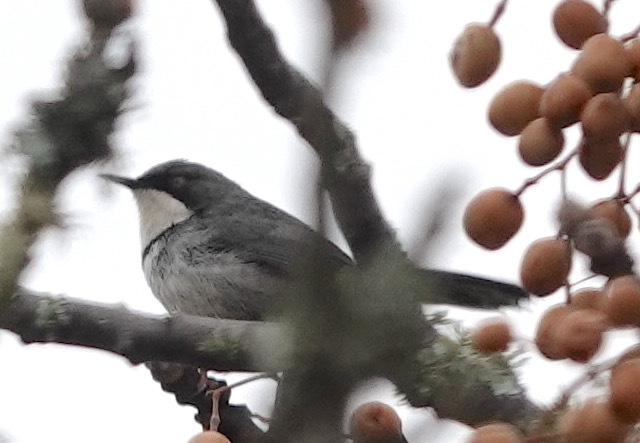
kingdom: Animalia
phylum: Chordata
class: Aves
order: Passeriformes
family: Cisticolidae
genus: Apalis
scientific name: Apalis thoracica
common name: Bar-throated apalis
